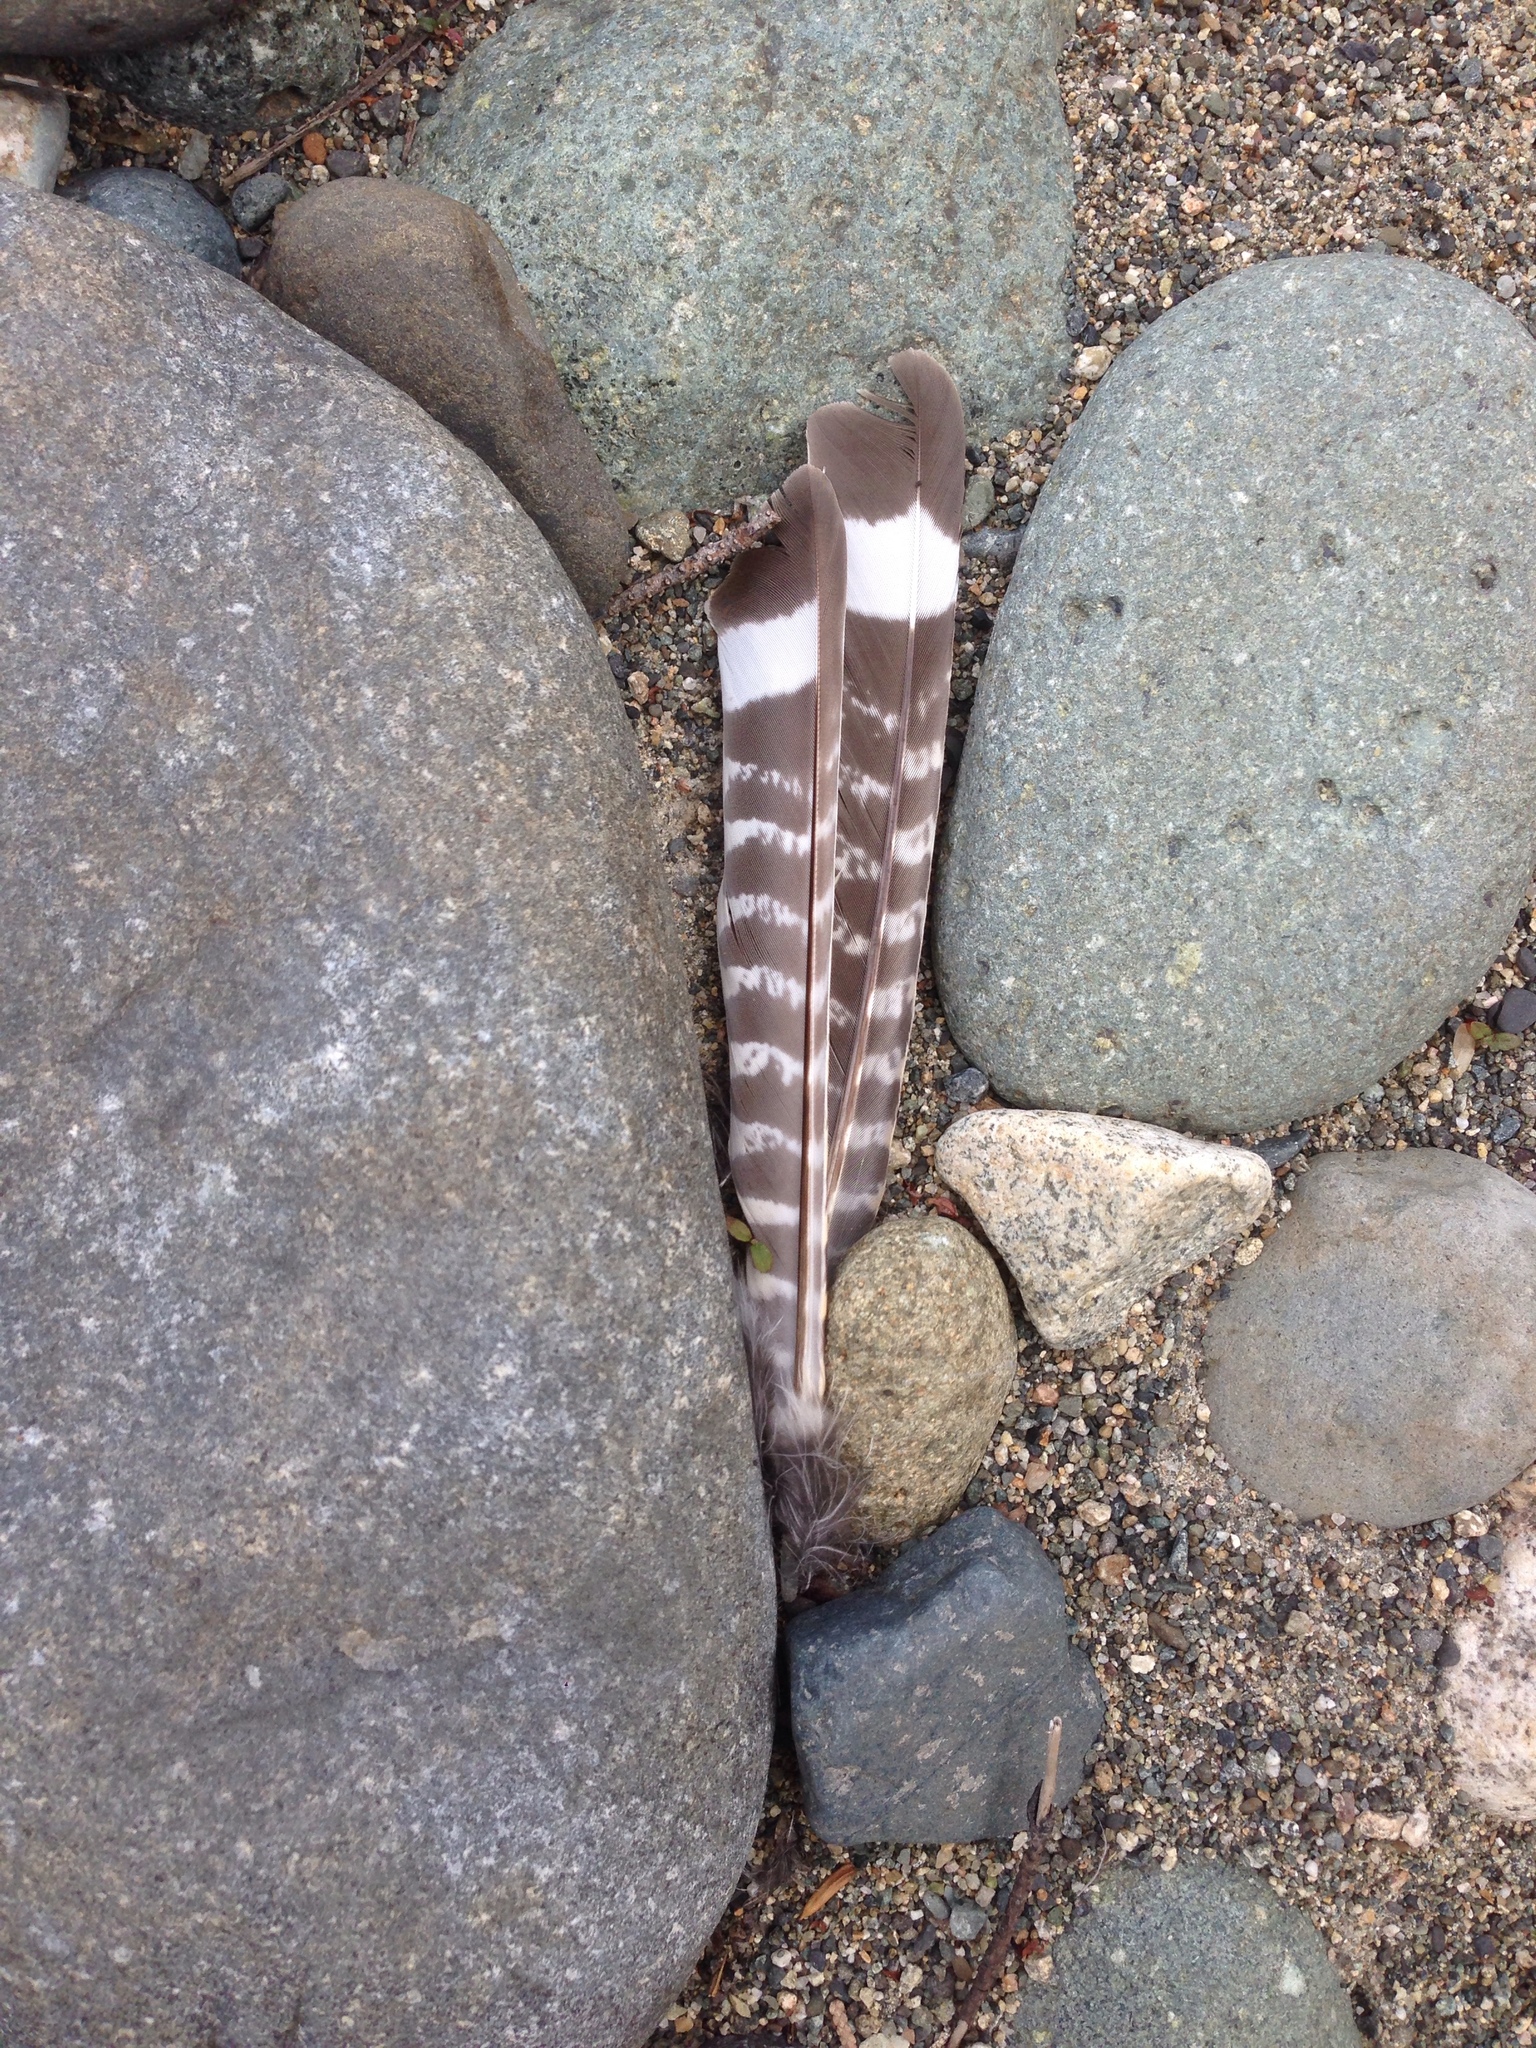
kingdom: Animalia
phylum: Chordata
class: Aves
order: Caprimulgiformes
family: Caprimulgidae
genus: Chordeiles
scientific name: Chordeiles minor
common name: Common nighthawk
